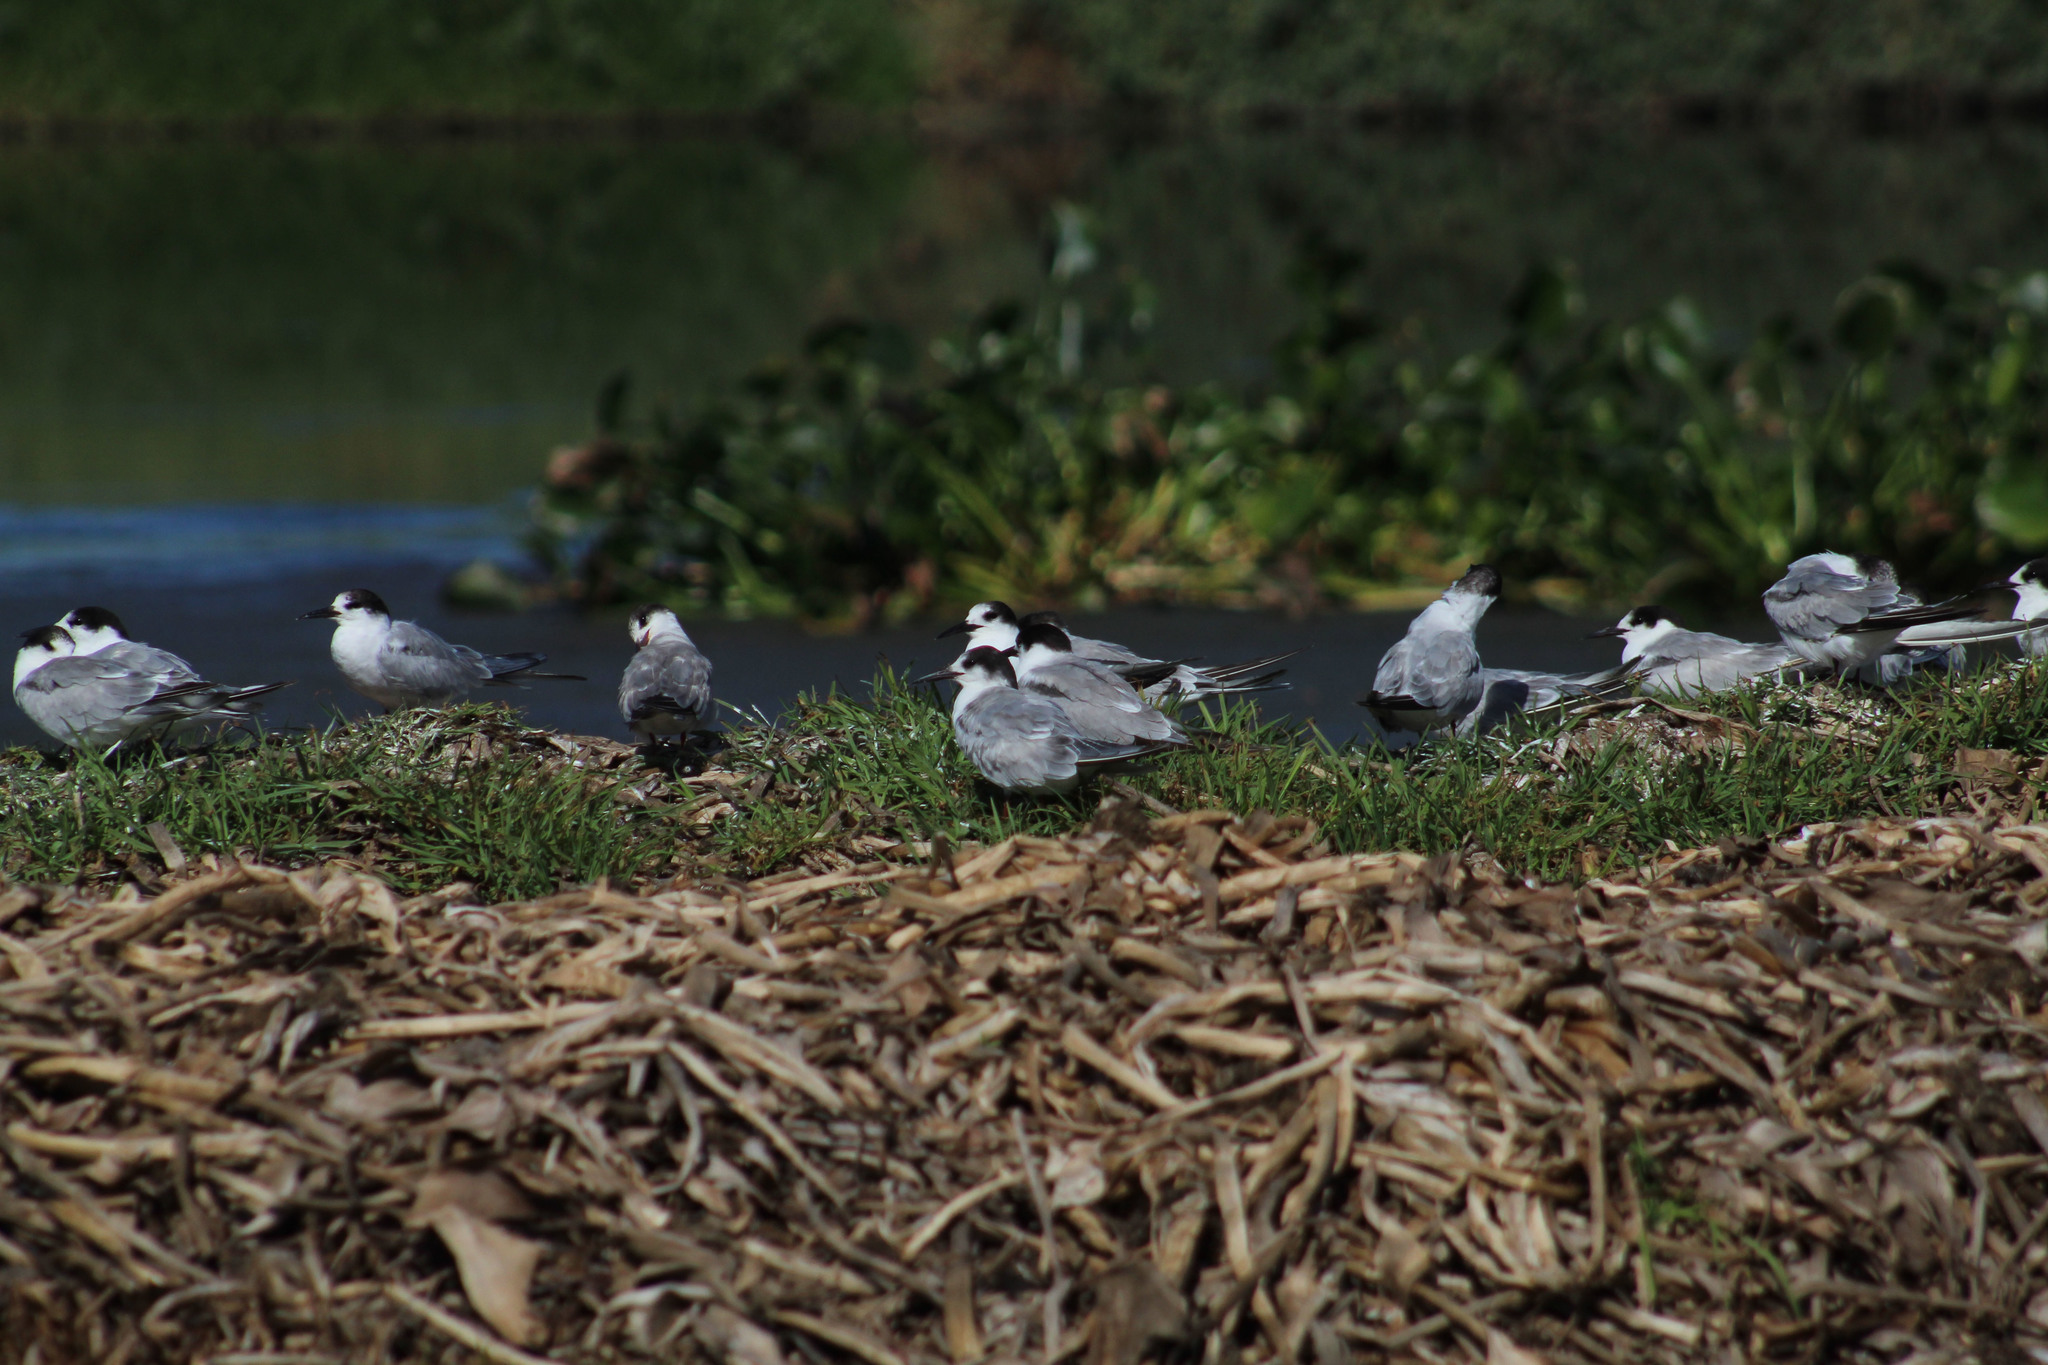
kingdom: Animalia
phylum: Chordata
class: Aves
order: Charadriiformes
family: Laridae
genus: Sterna
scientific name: Sterna hirundo
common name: Common tern
